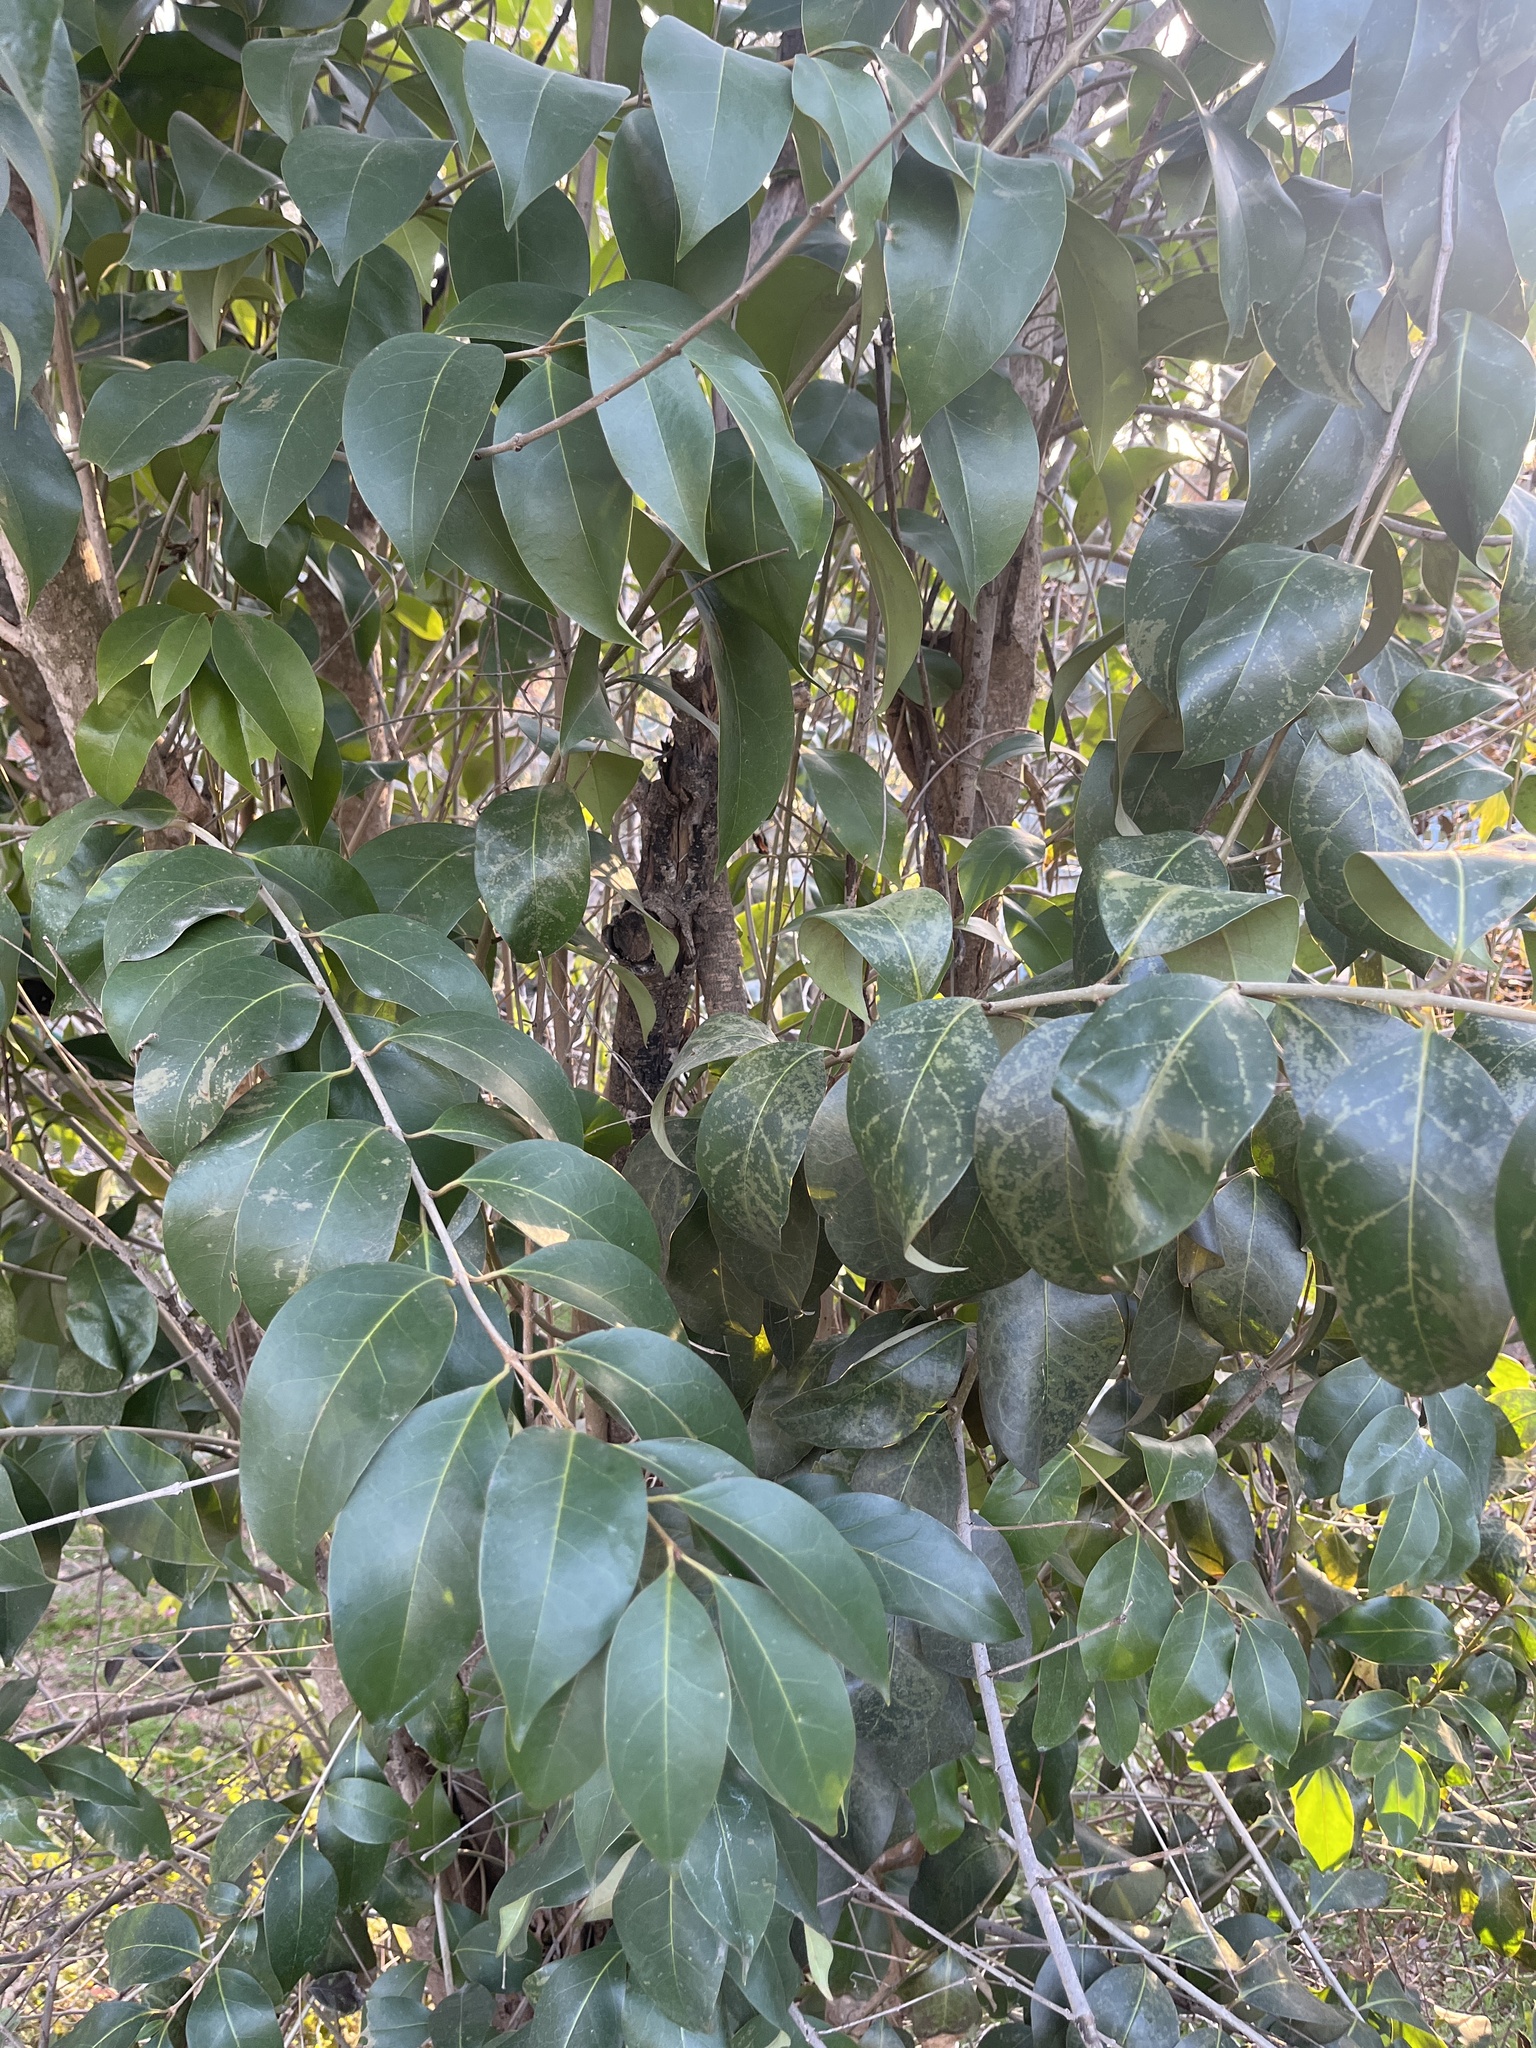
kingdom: Plantae
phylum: Tracheophyta
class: Magnoliopsida
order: Lamiales
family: Oleaceae
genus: Ligustrum
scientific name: Ligustrum lucidum
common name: Glossy privet
